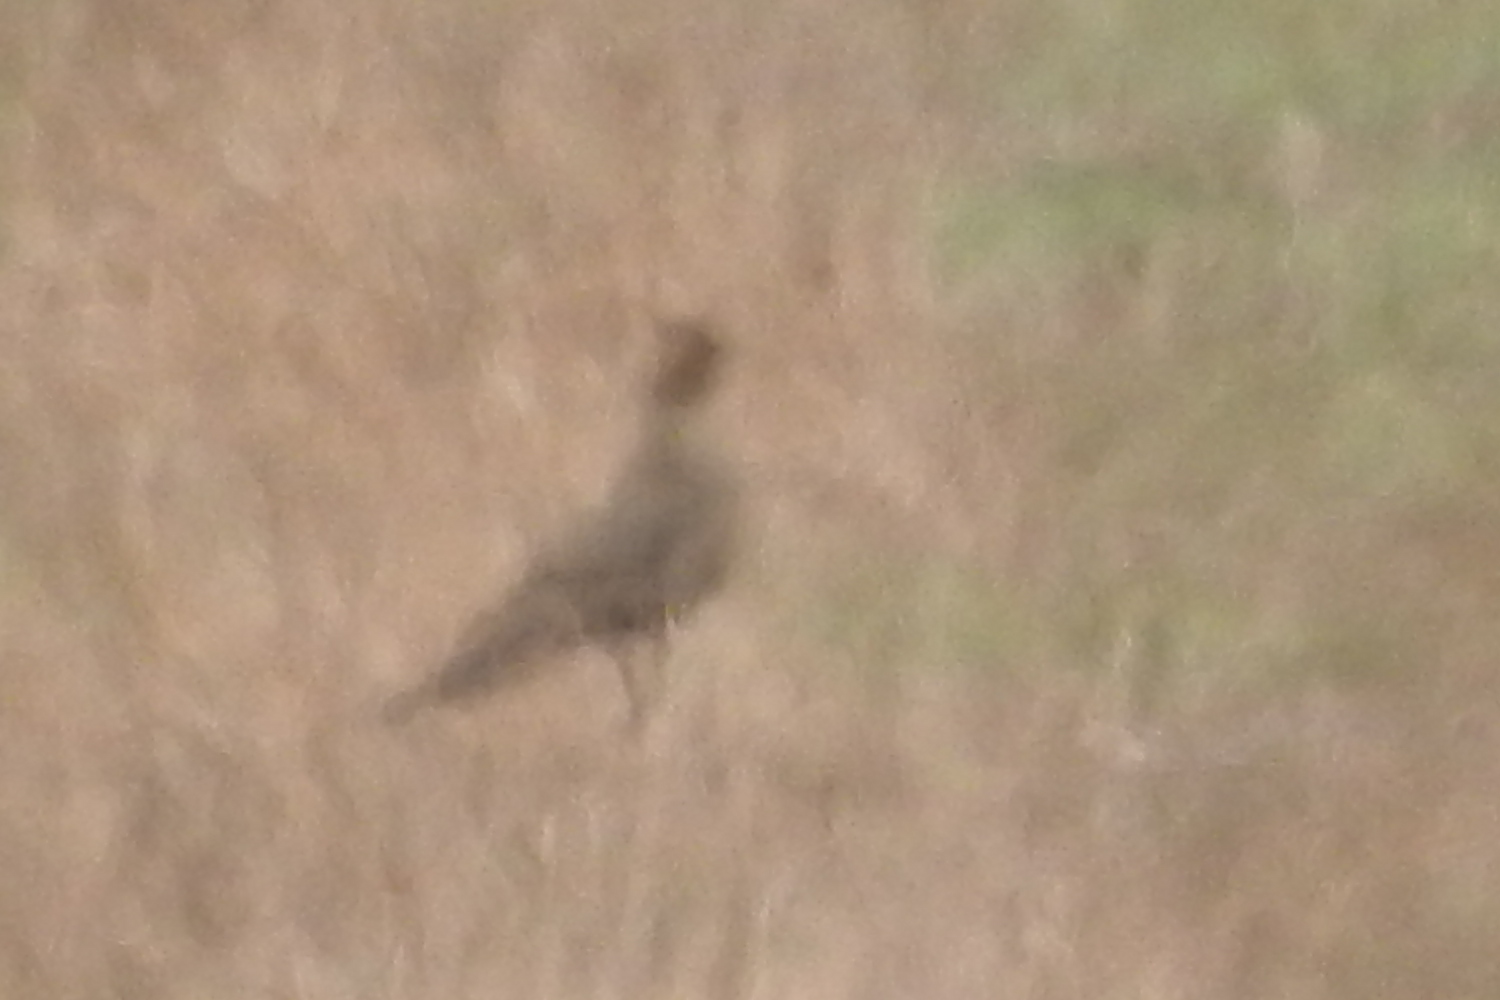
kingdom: Animalia
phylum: Chordata
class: Aves
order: Galliformes
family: Phasianidae
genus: Phasianus
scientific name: Phasianus colchicus
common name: Common pheasant
